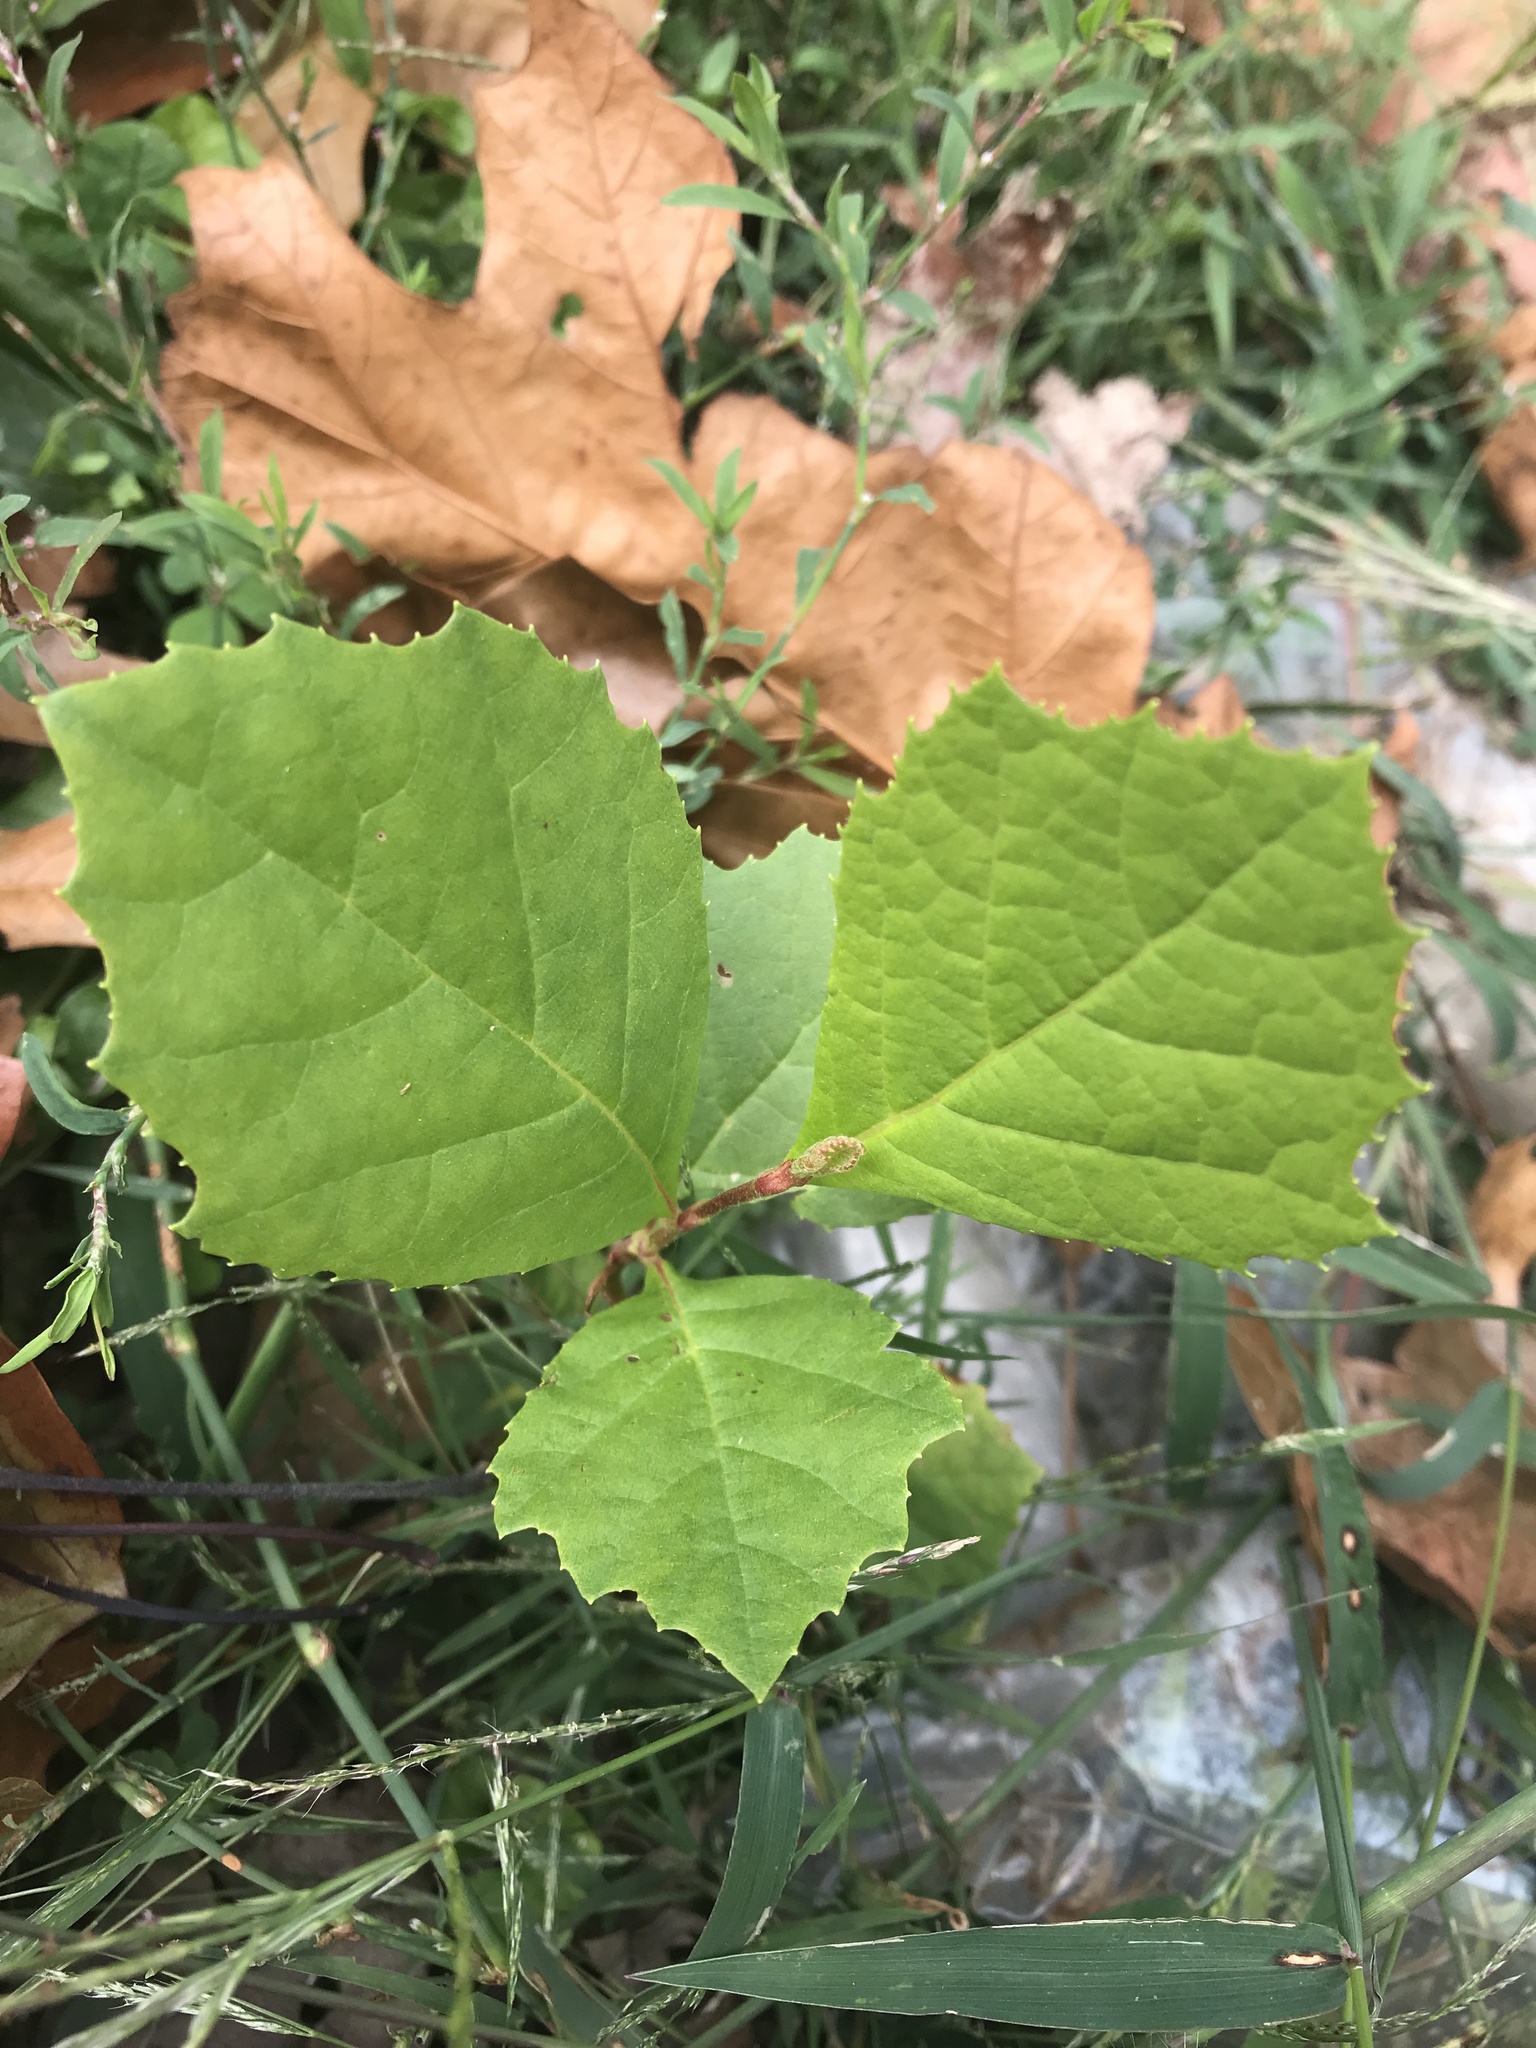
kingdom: Plantae
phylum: Tracheophyta
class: Magnoliopsida
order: Proteales
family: Platanaceae
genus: Platanus
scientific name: Platanus occidentalis
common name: American sycamore
